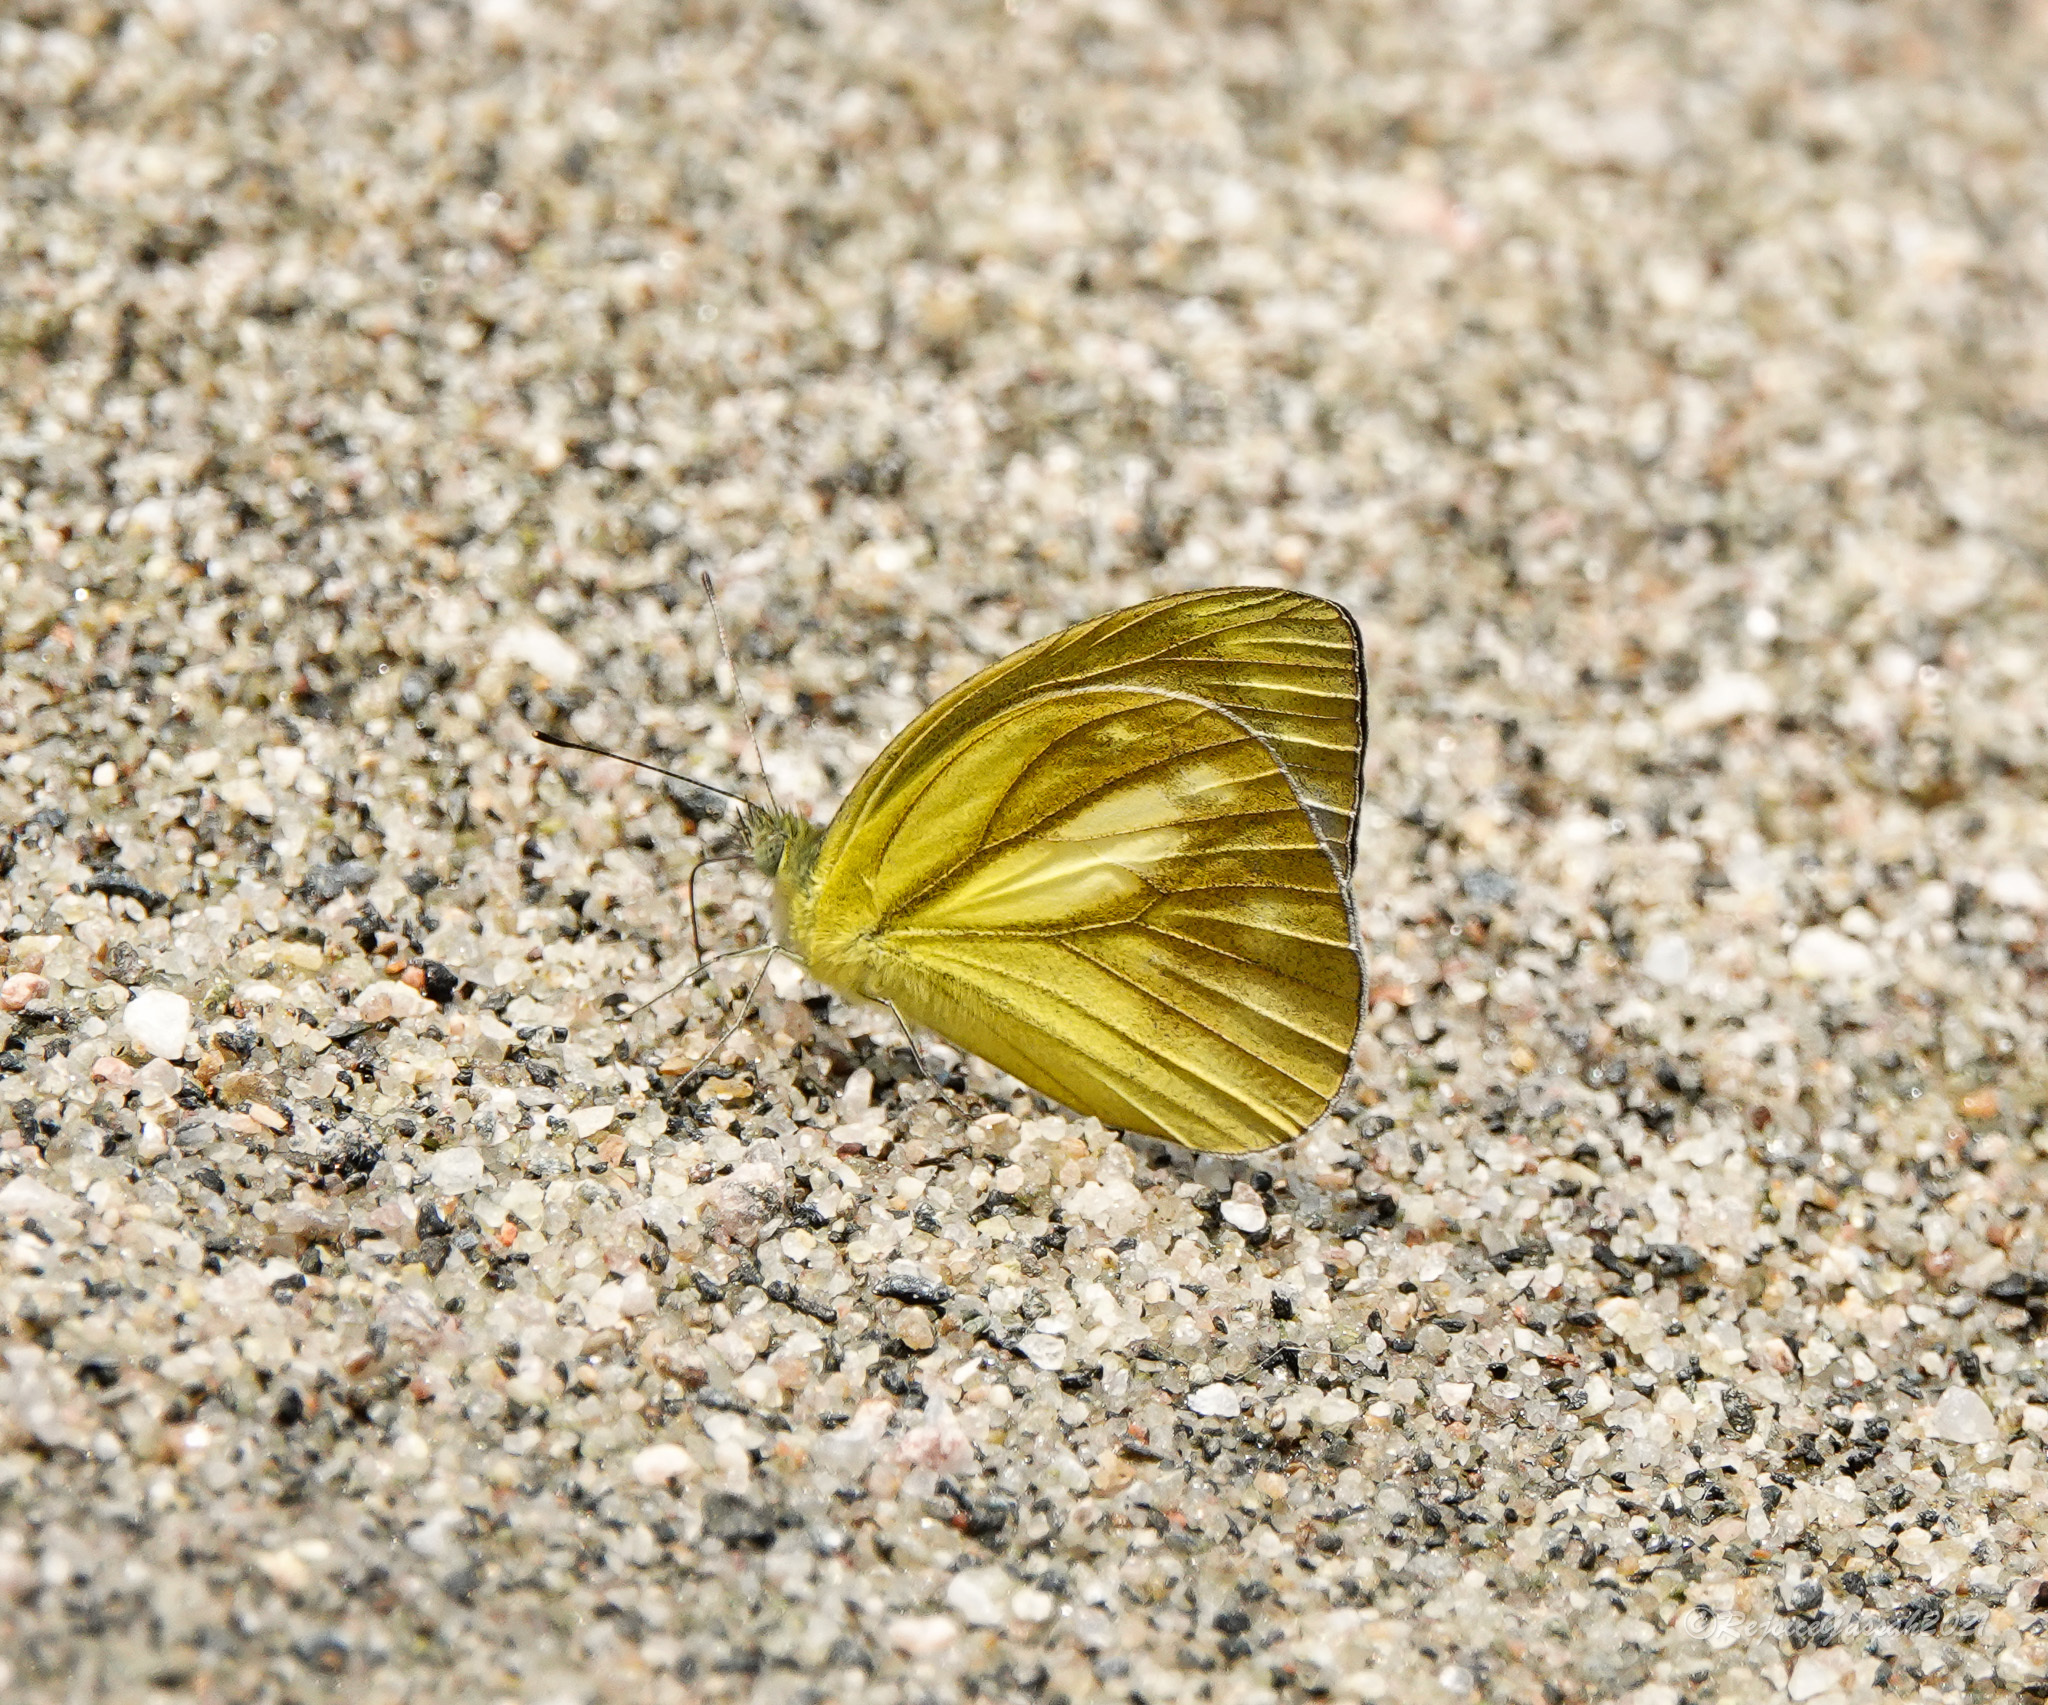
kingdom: Animalia
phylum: Arthropoda
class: Insecta
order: Lepidoptera
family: Pieridae
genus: Cepora
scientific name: Cepora nadina
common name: Lesser gull
